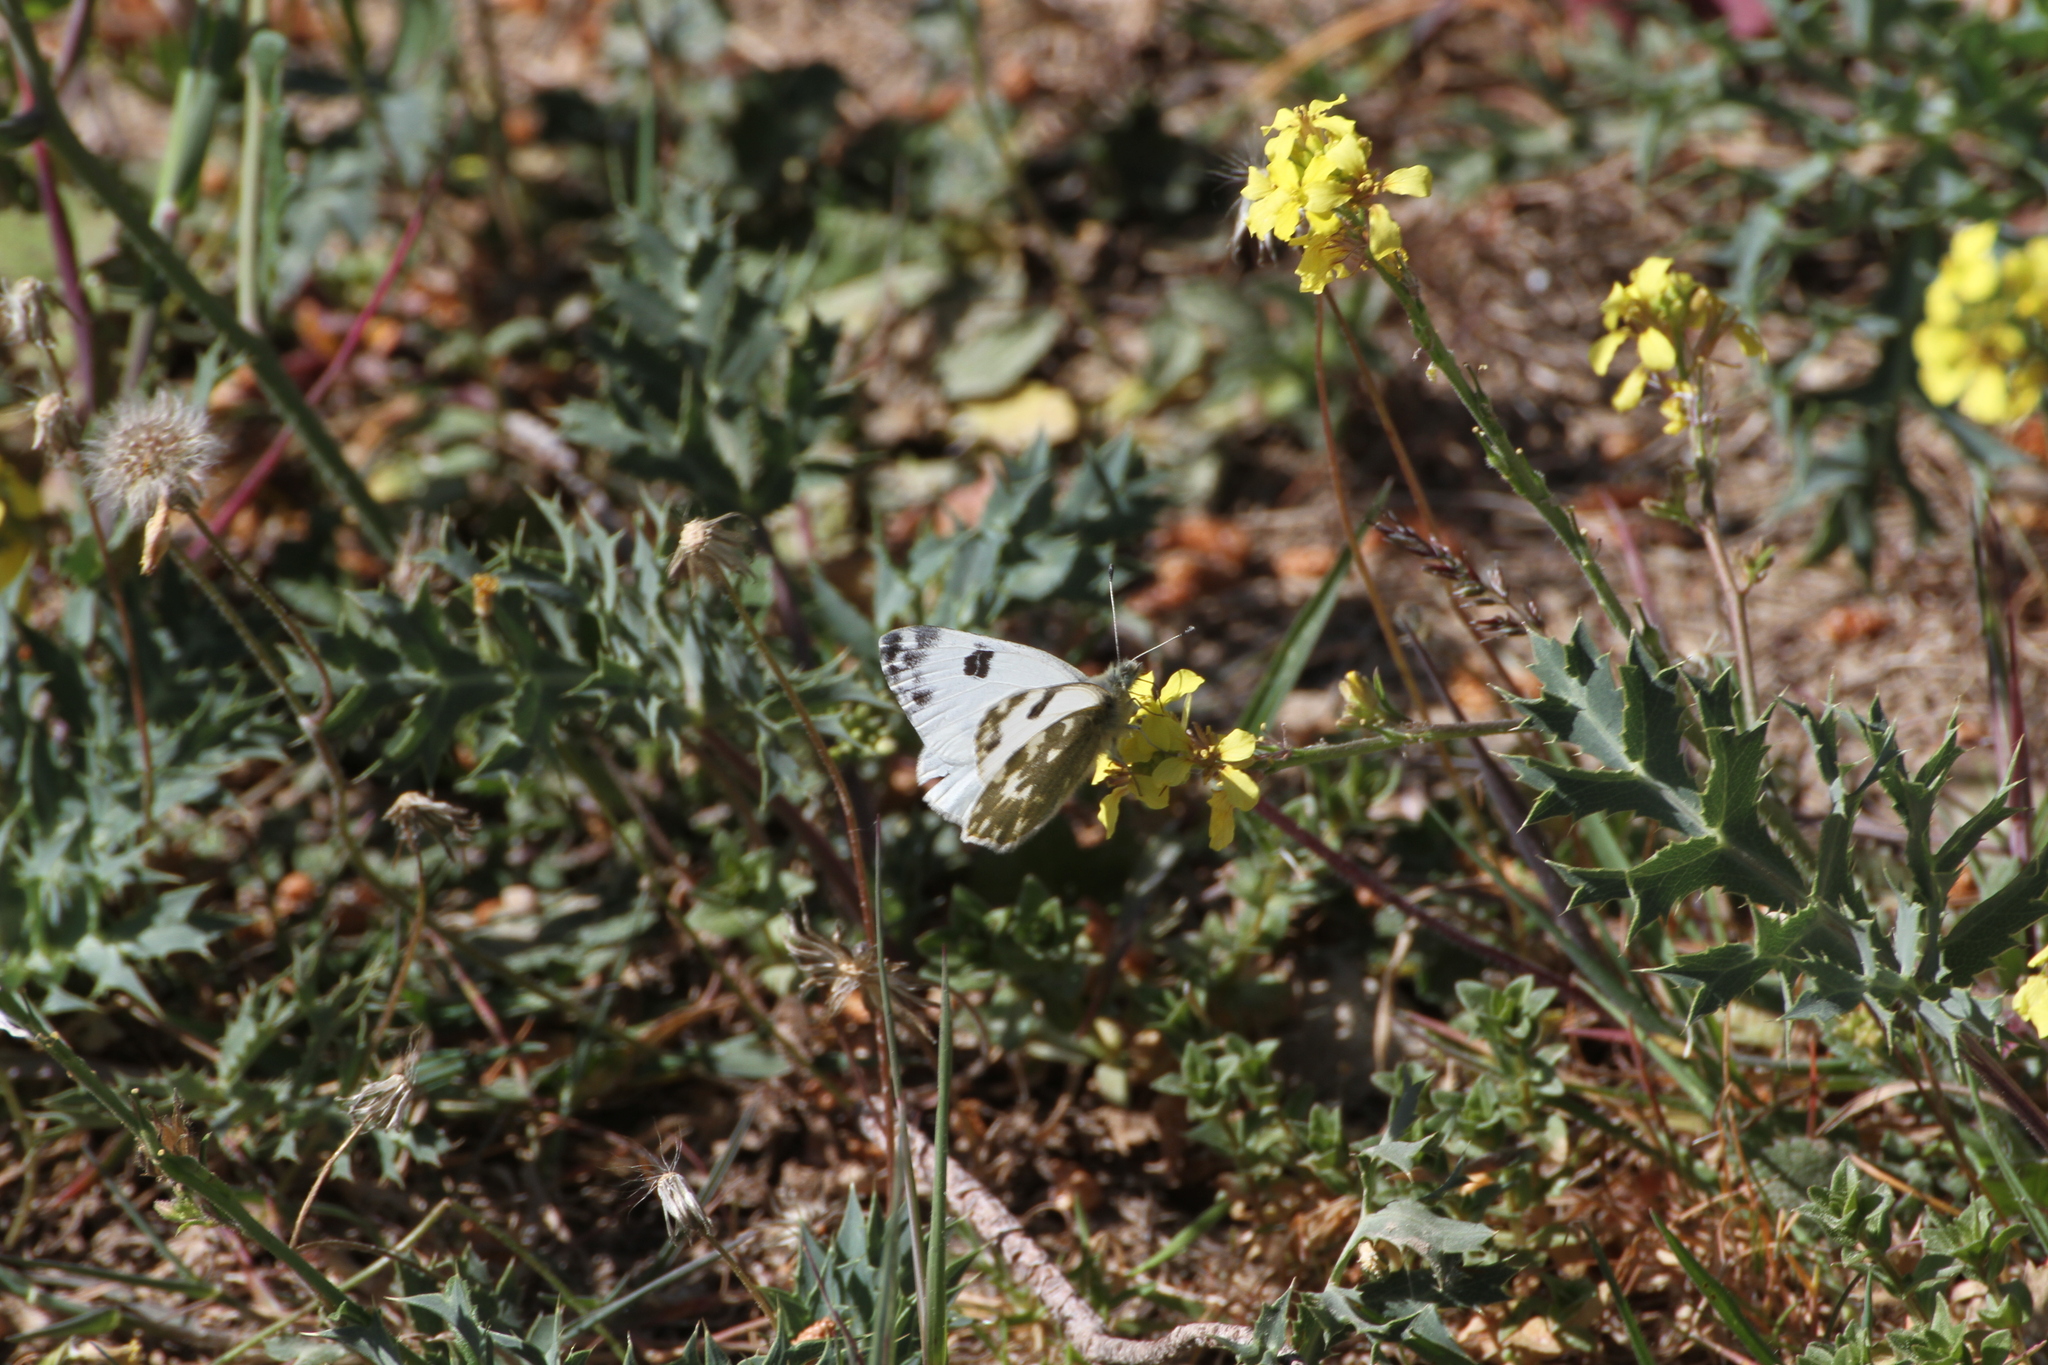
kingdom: Animalia
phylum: Arthropoda
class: Insecta
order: Lepidoptera
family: Pieridae
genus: Pontia
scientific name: Pontia daplidice
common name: Bath white
